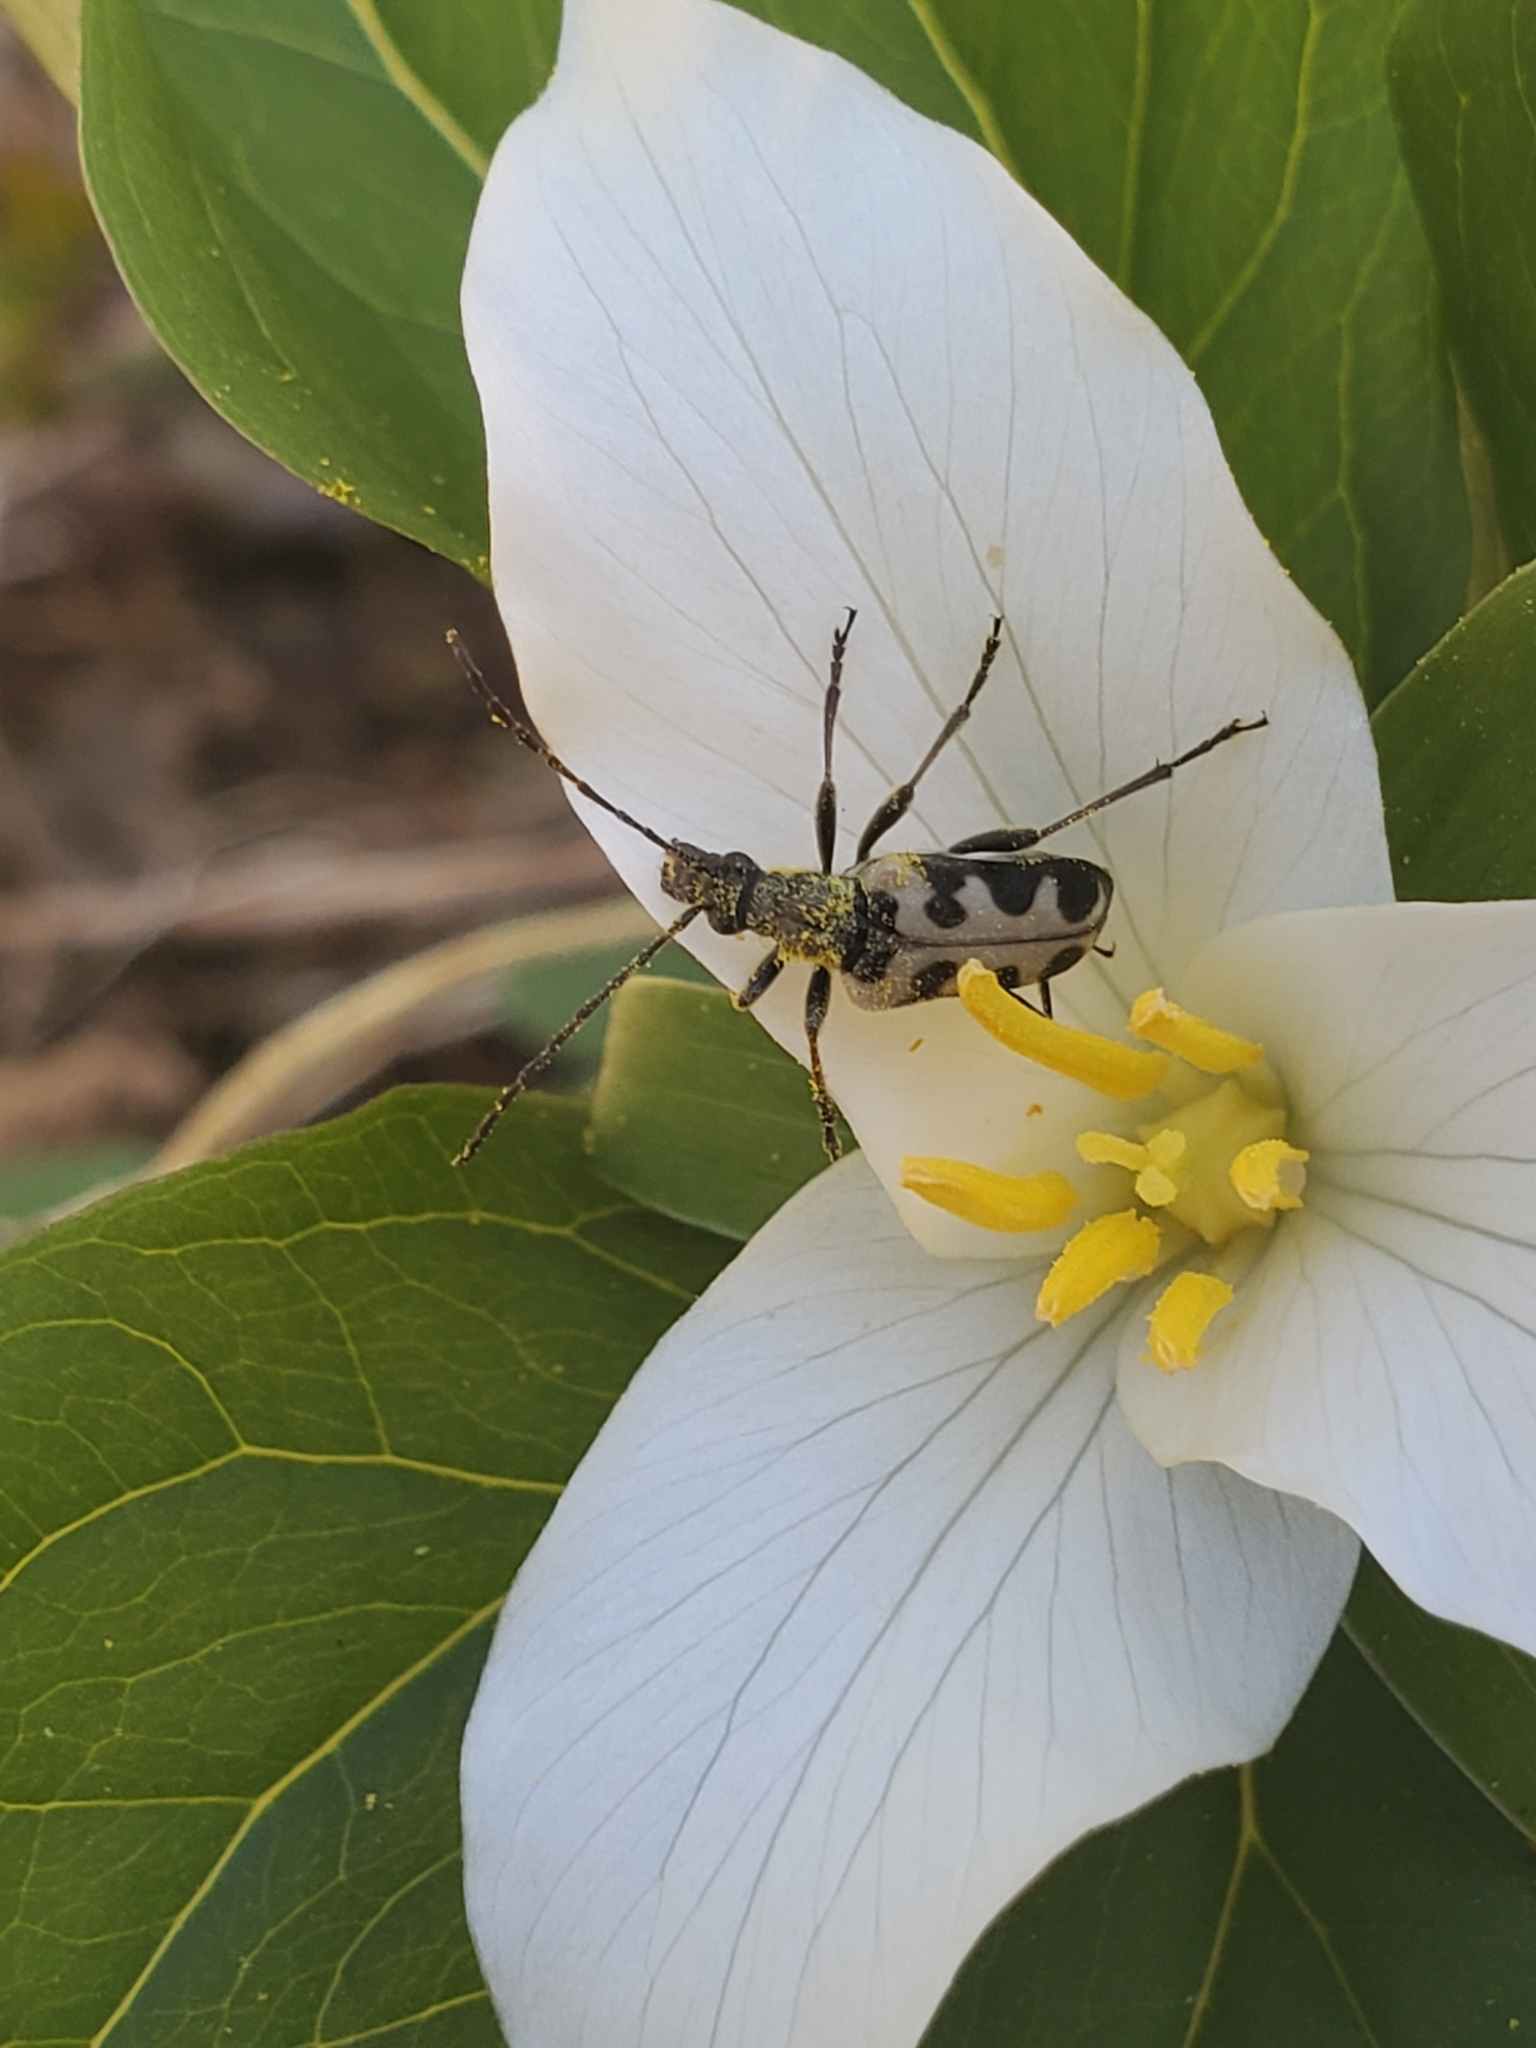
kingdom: Animalia
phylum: Arthropoda
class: Insecta
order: Coleoptera
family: Cerambycidae
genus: Evodinus
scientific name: Evodinus monticola
